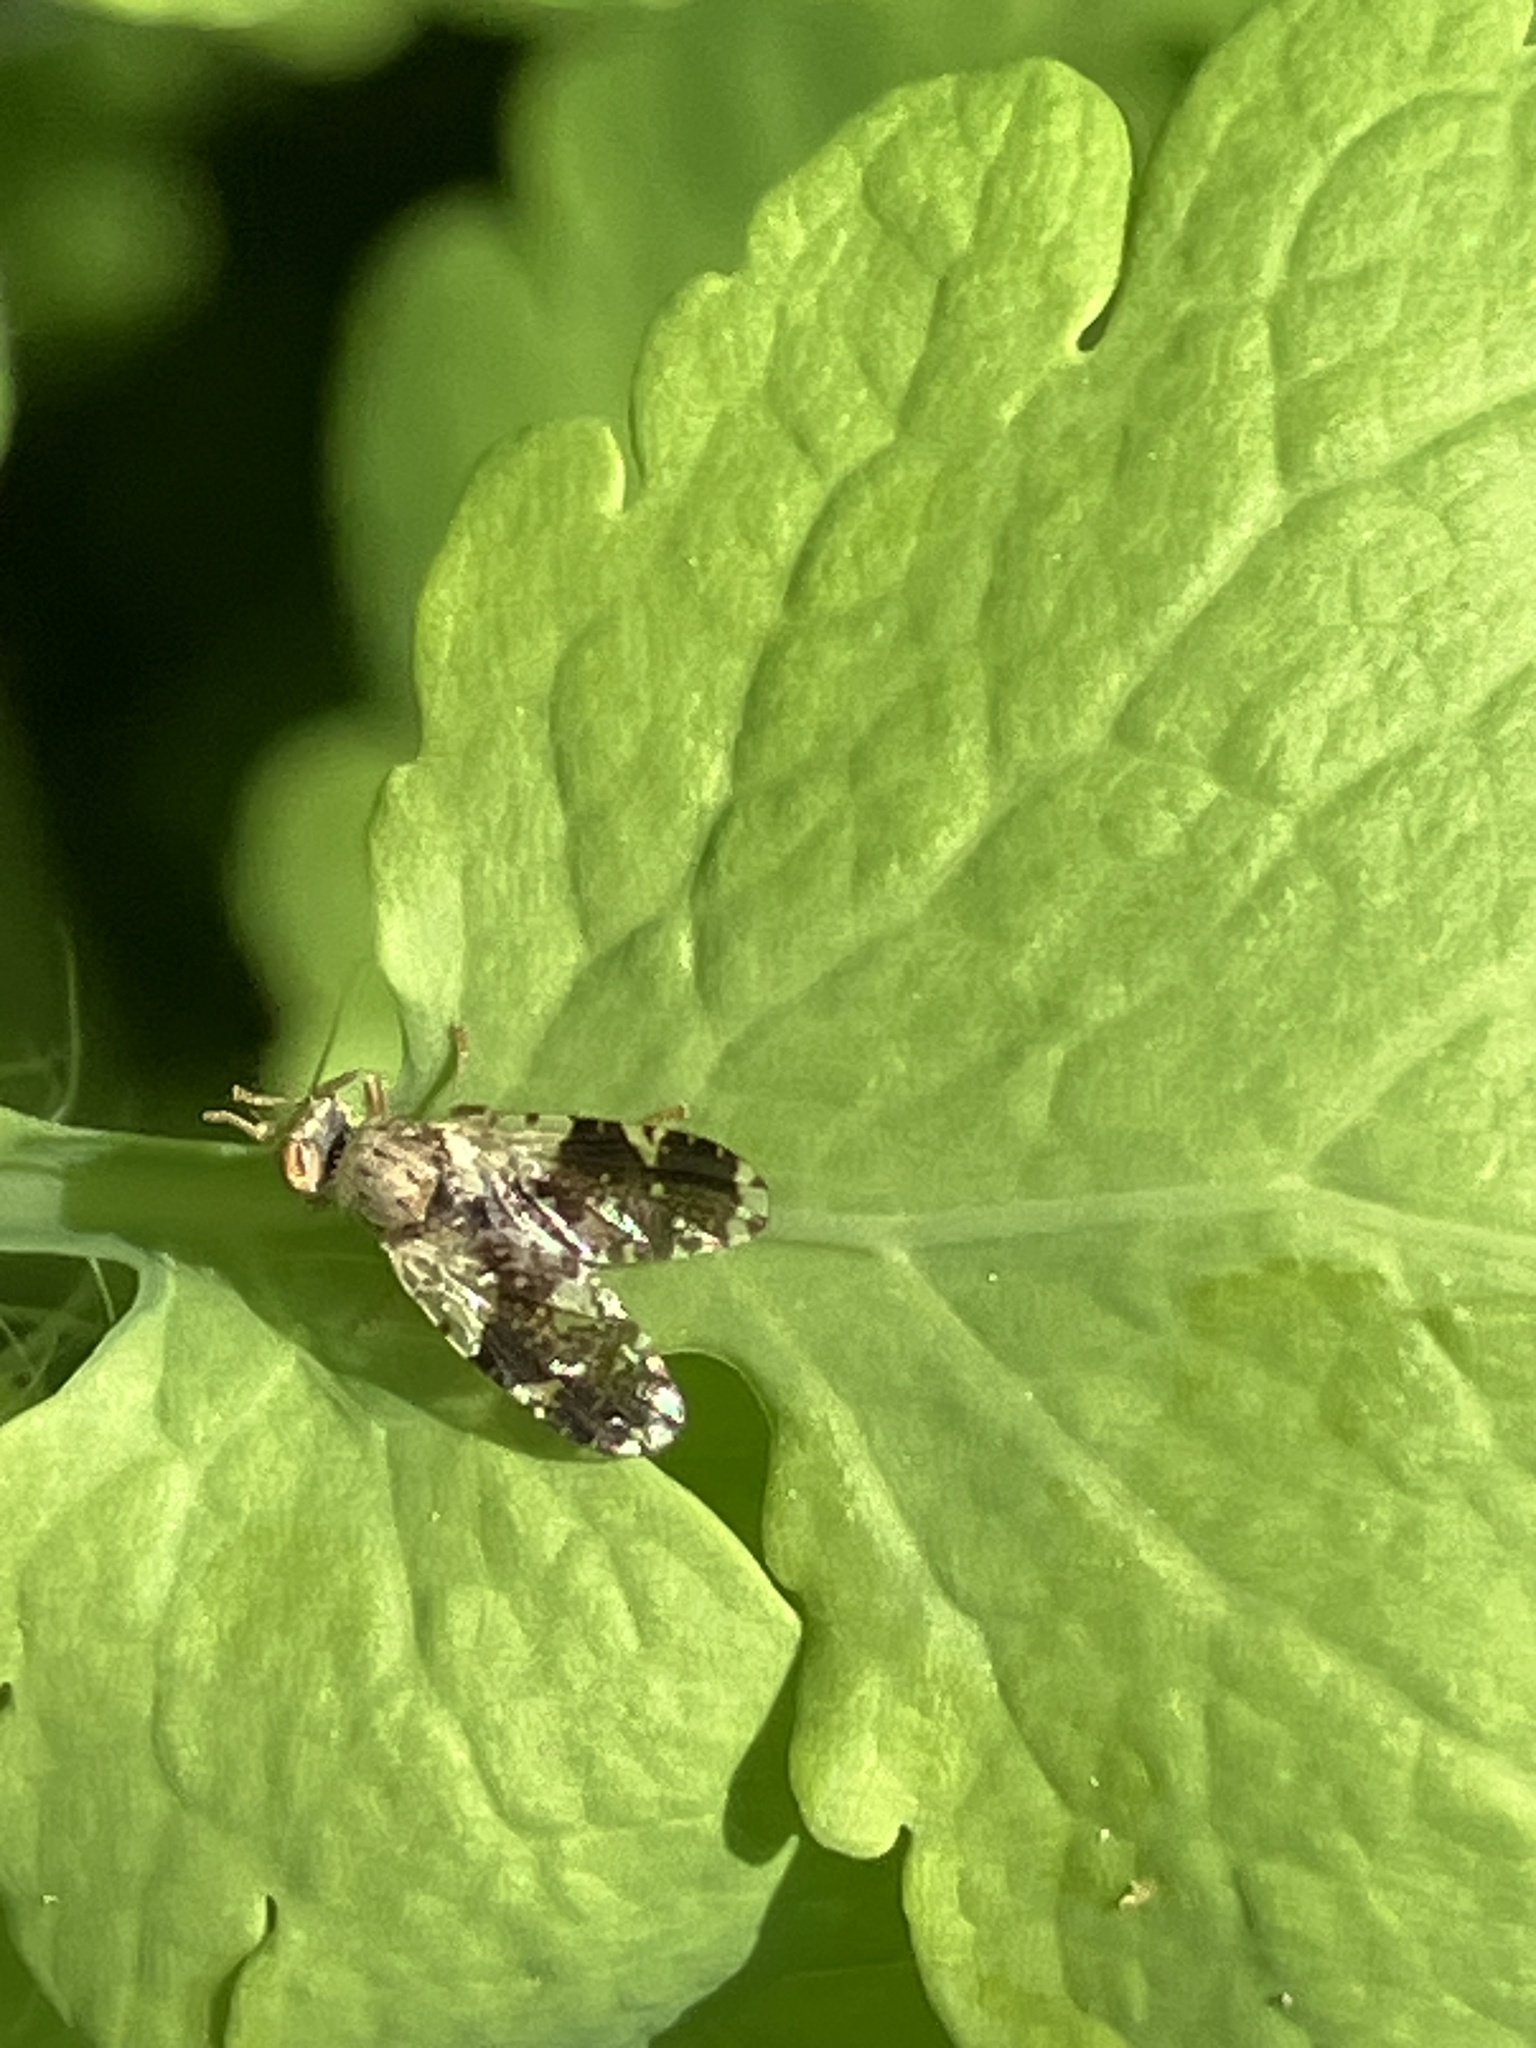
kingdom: Animalia
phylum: Arthropoda
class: Insecta
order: Diptera
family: Tephritidae
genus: Tephritis
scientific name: Tephritis formosa
